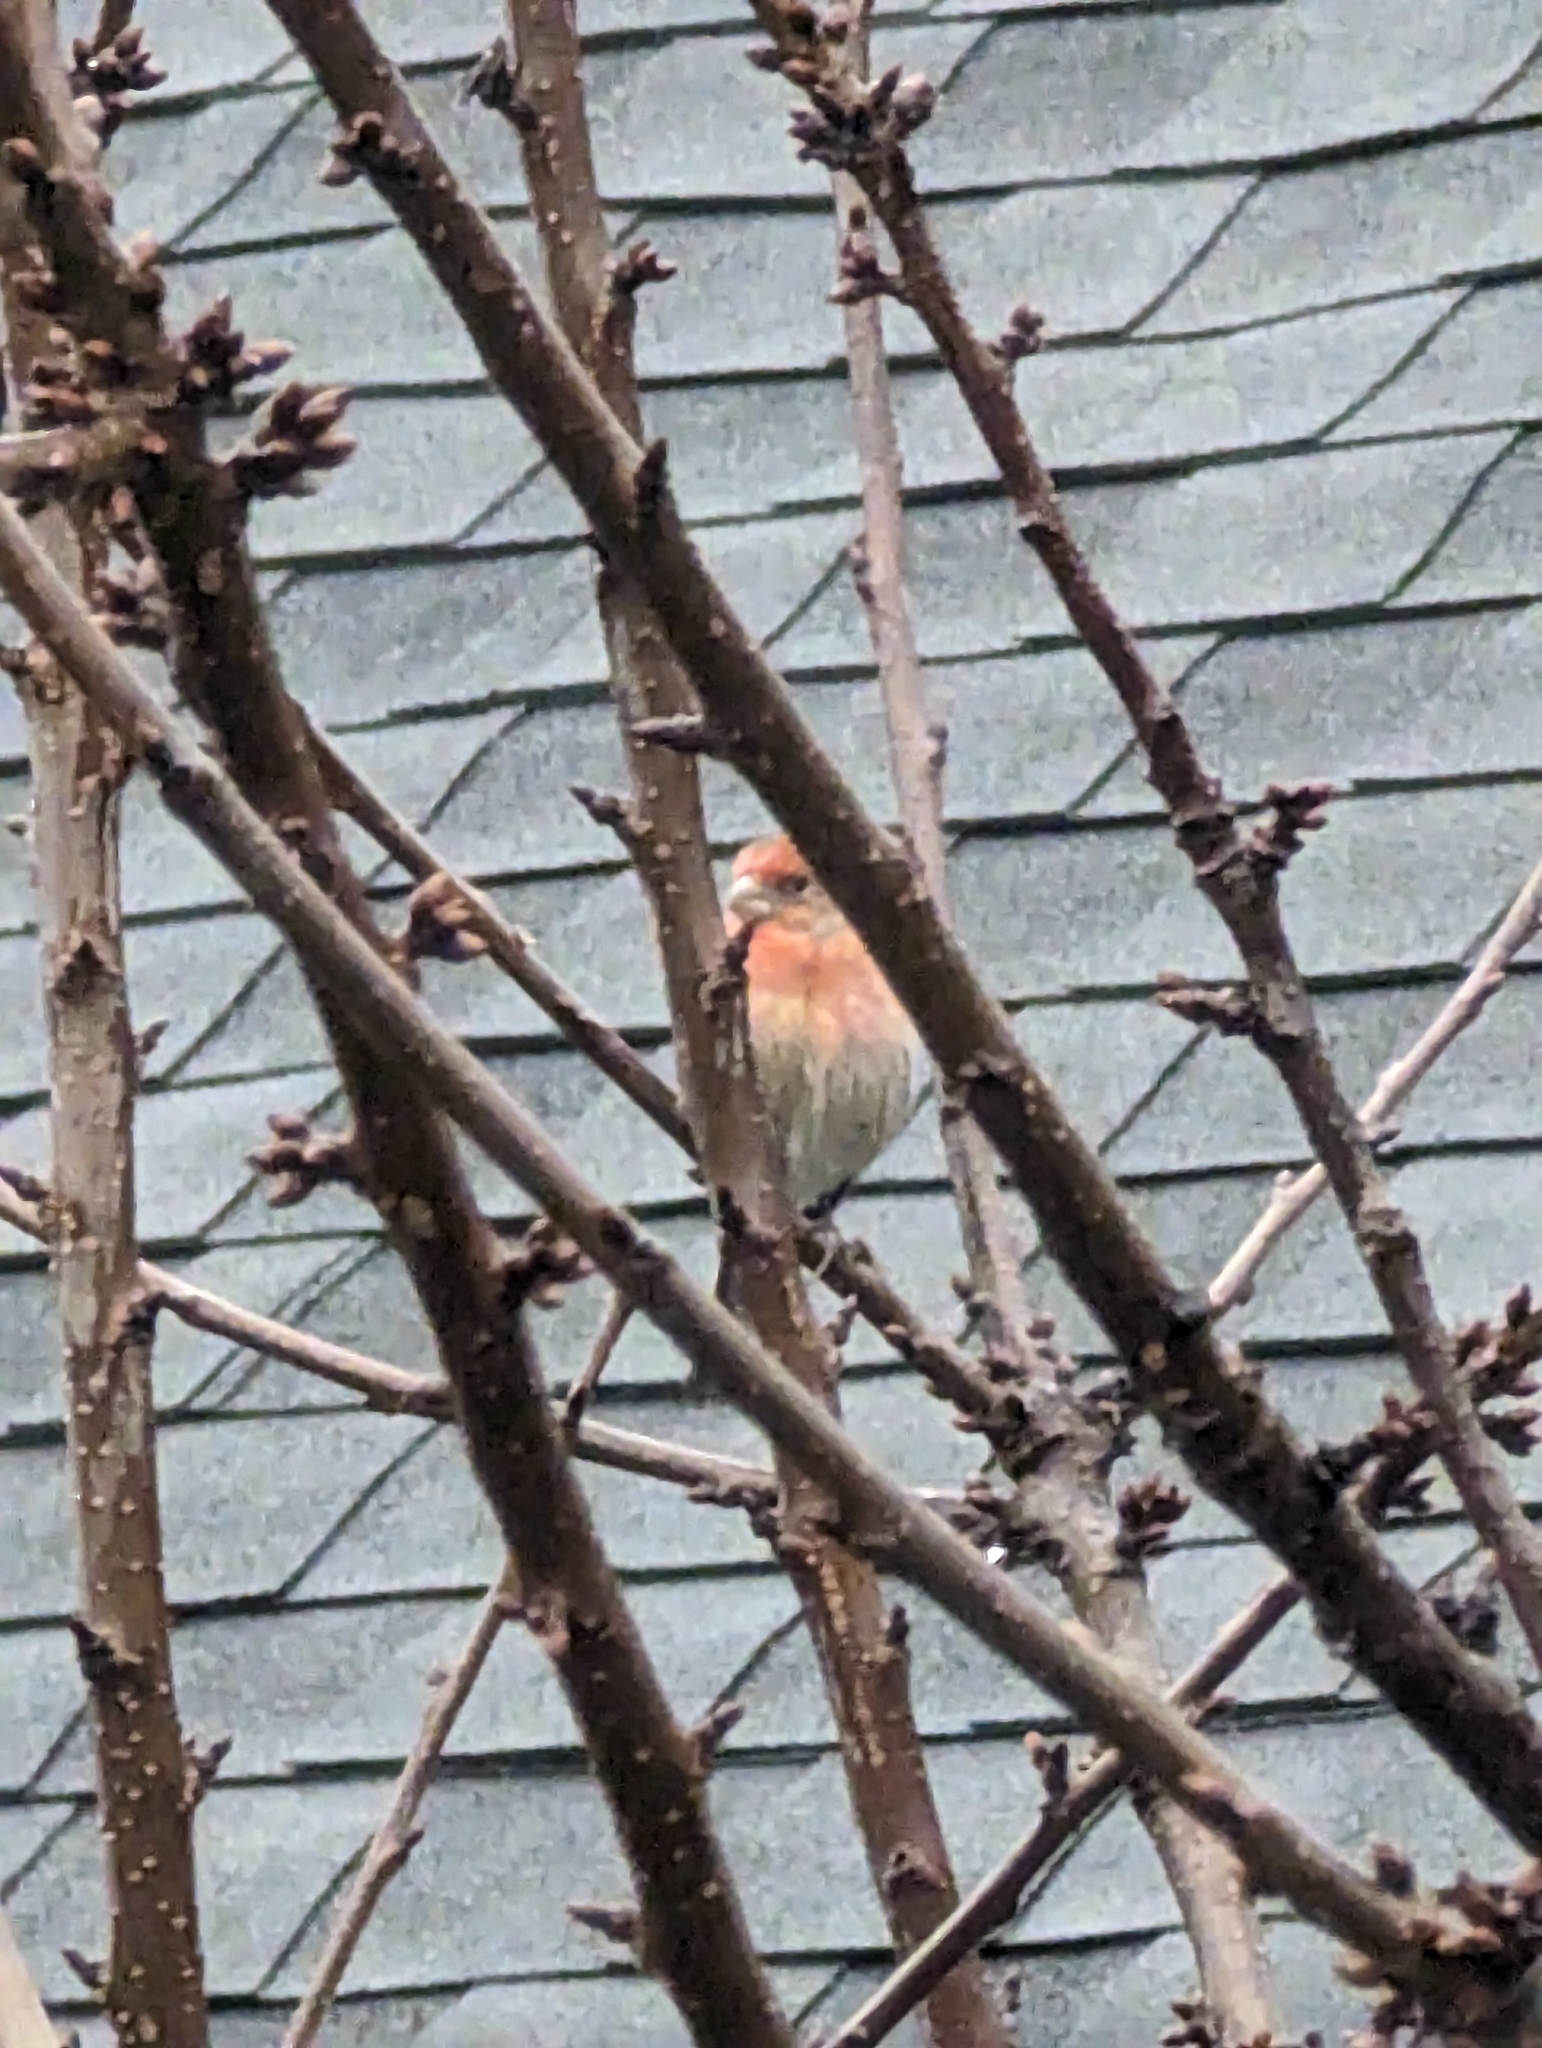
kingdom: Animalia
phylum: Chordata
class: Aves
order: Passeriformes
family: Fringillidae
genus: Haemorhous
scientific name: Haemorhous mexicanus
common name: House finch
